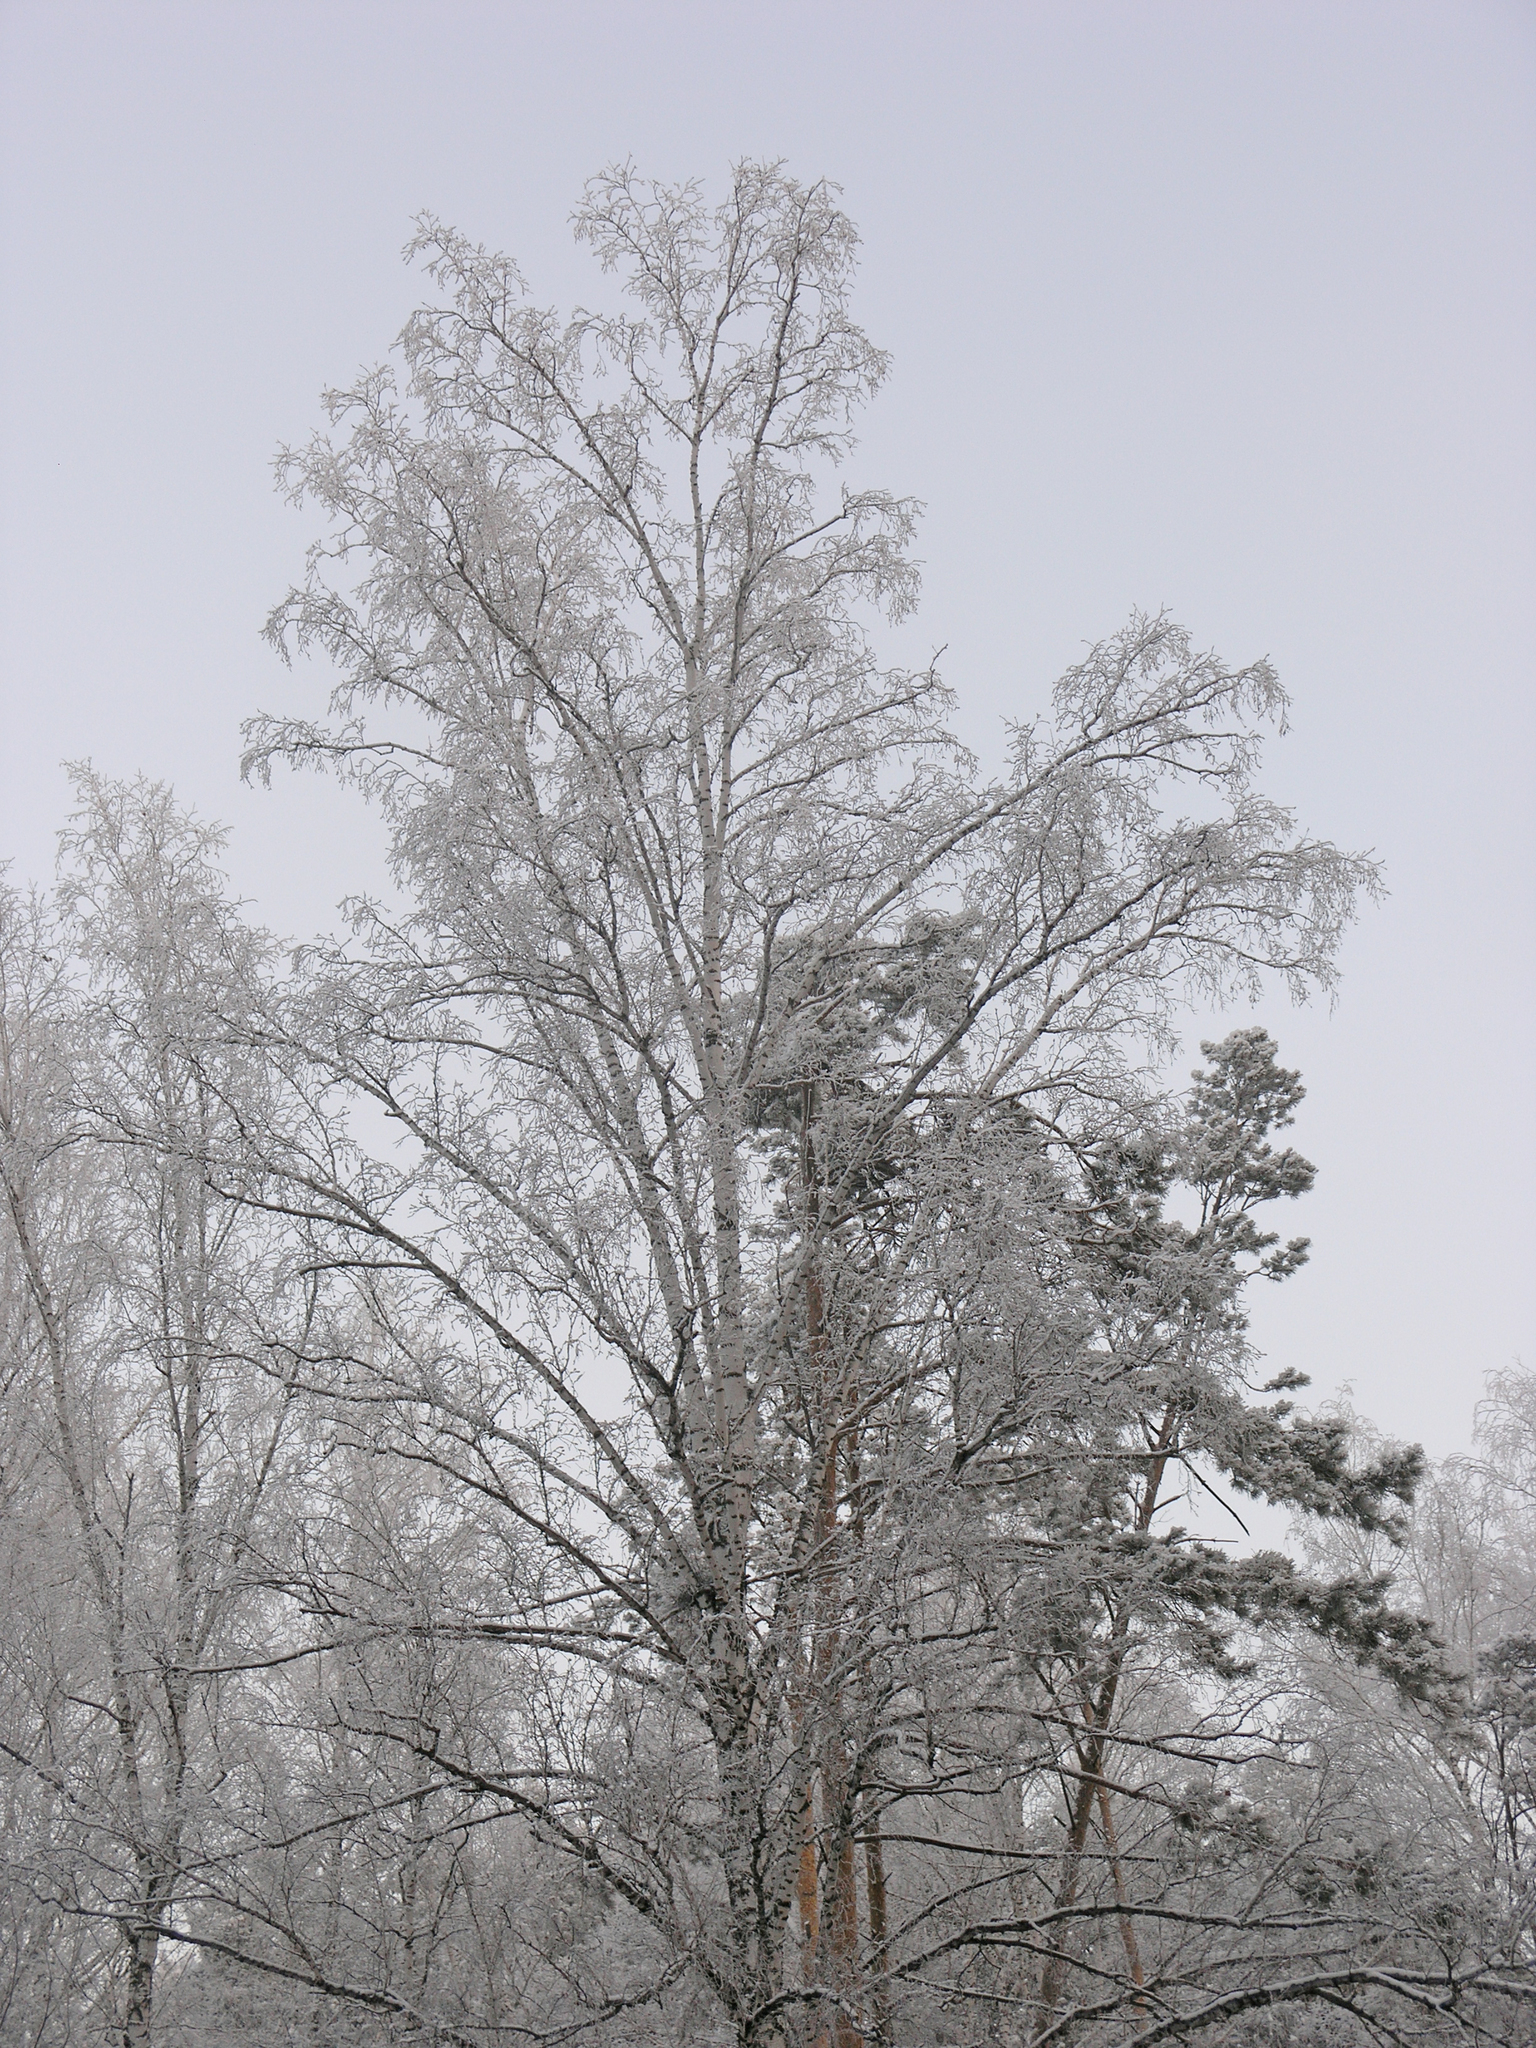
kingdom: Plantae
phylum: Tracheophyta
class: Pinopsida
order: Pinales
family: Pinaceae
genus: Pinus
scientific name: Pinus sylvestris
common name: Scots pine
